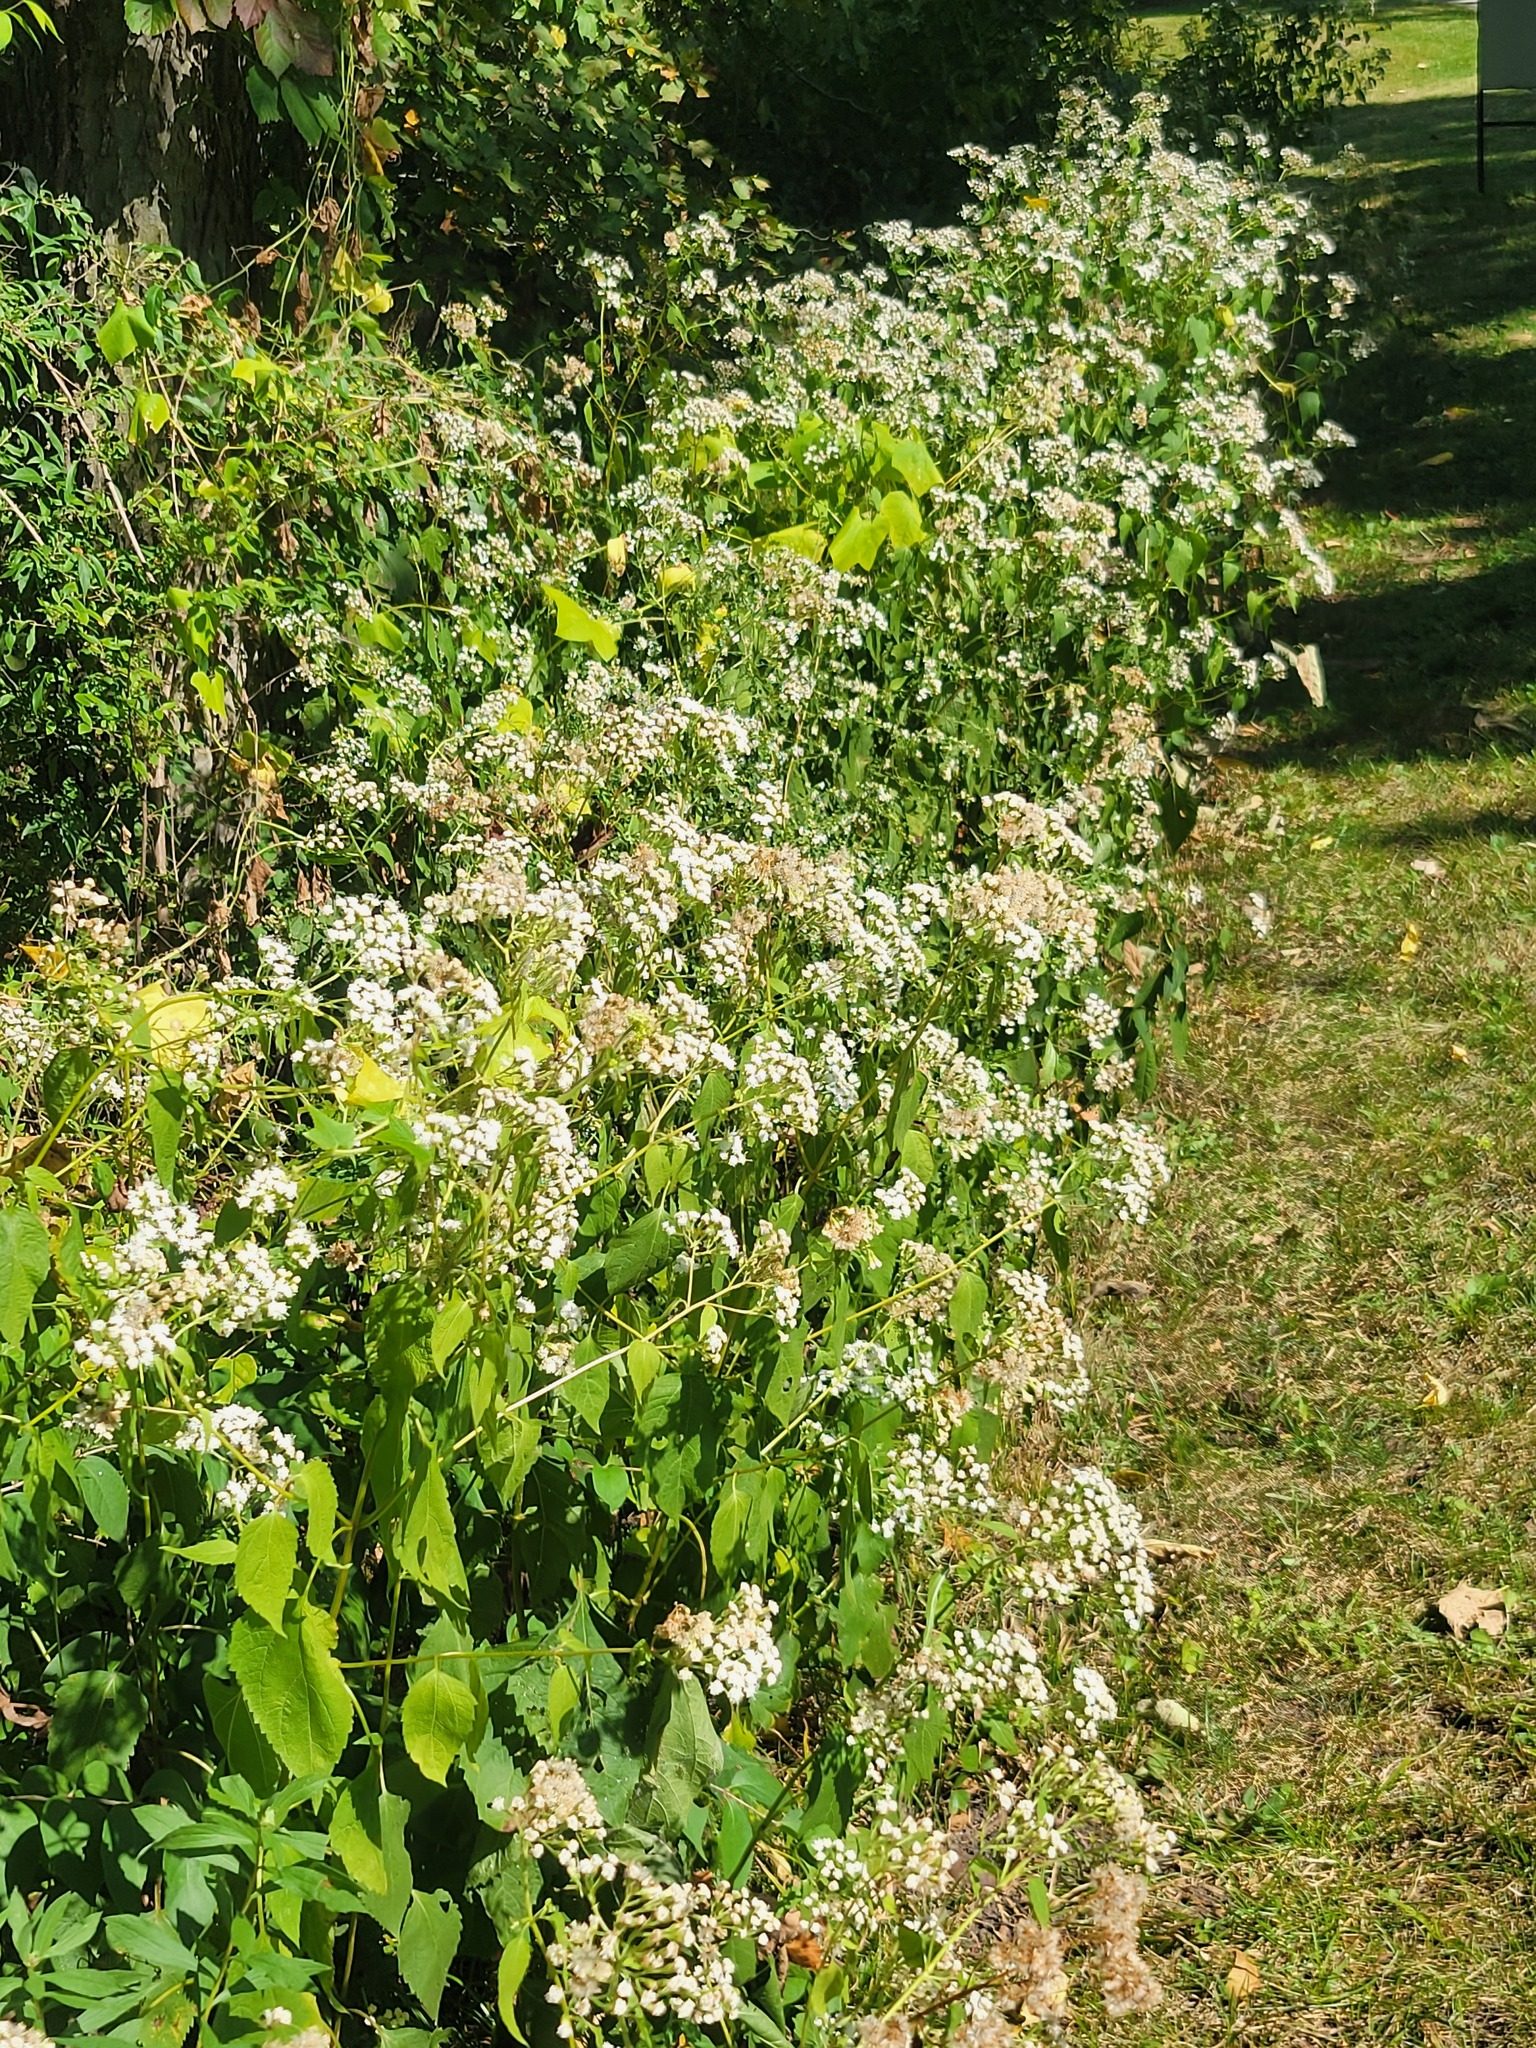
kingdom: Plantae
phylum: Tracheophyta
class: Magnoliopsida
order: Asterales
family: Asteraceae
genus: Ageratina
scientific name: Ageratina altissima
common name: White snakeroot
